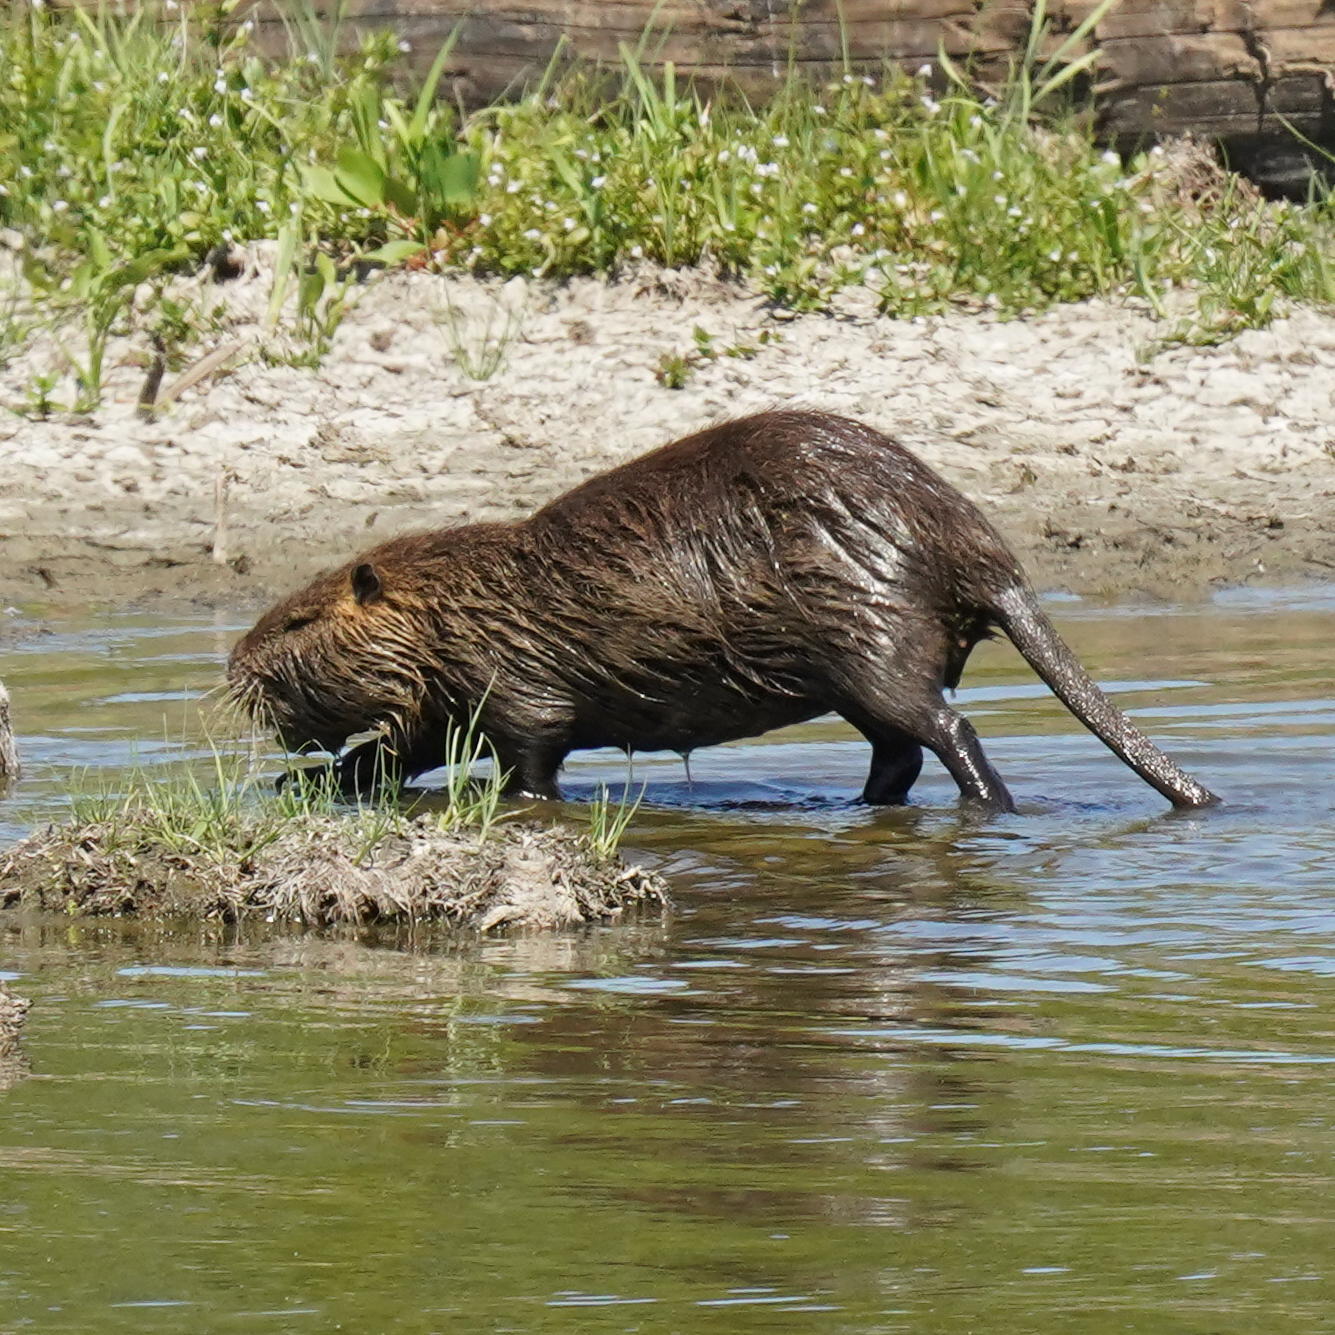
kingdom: Animalia
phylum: Chordata
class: Mammalia
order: Rodentia
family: Myocastoridae
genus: Myocastor
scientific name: Myocastor coypus
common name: Coypu
